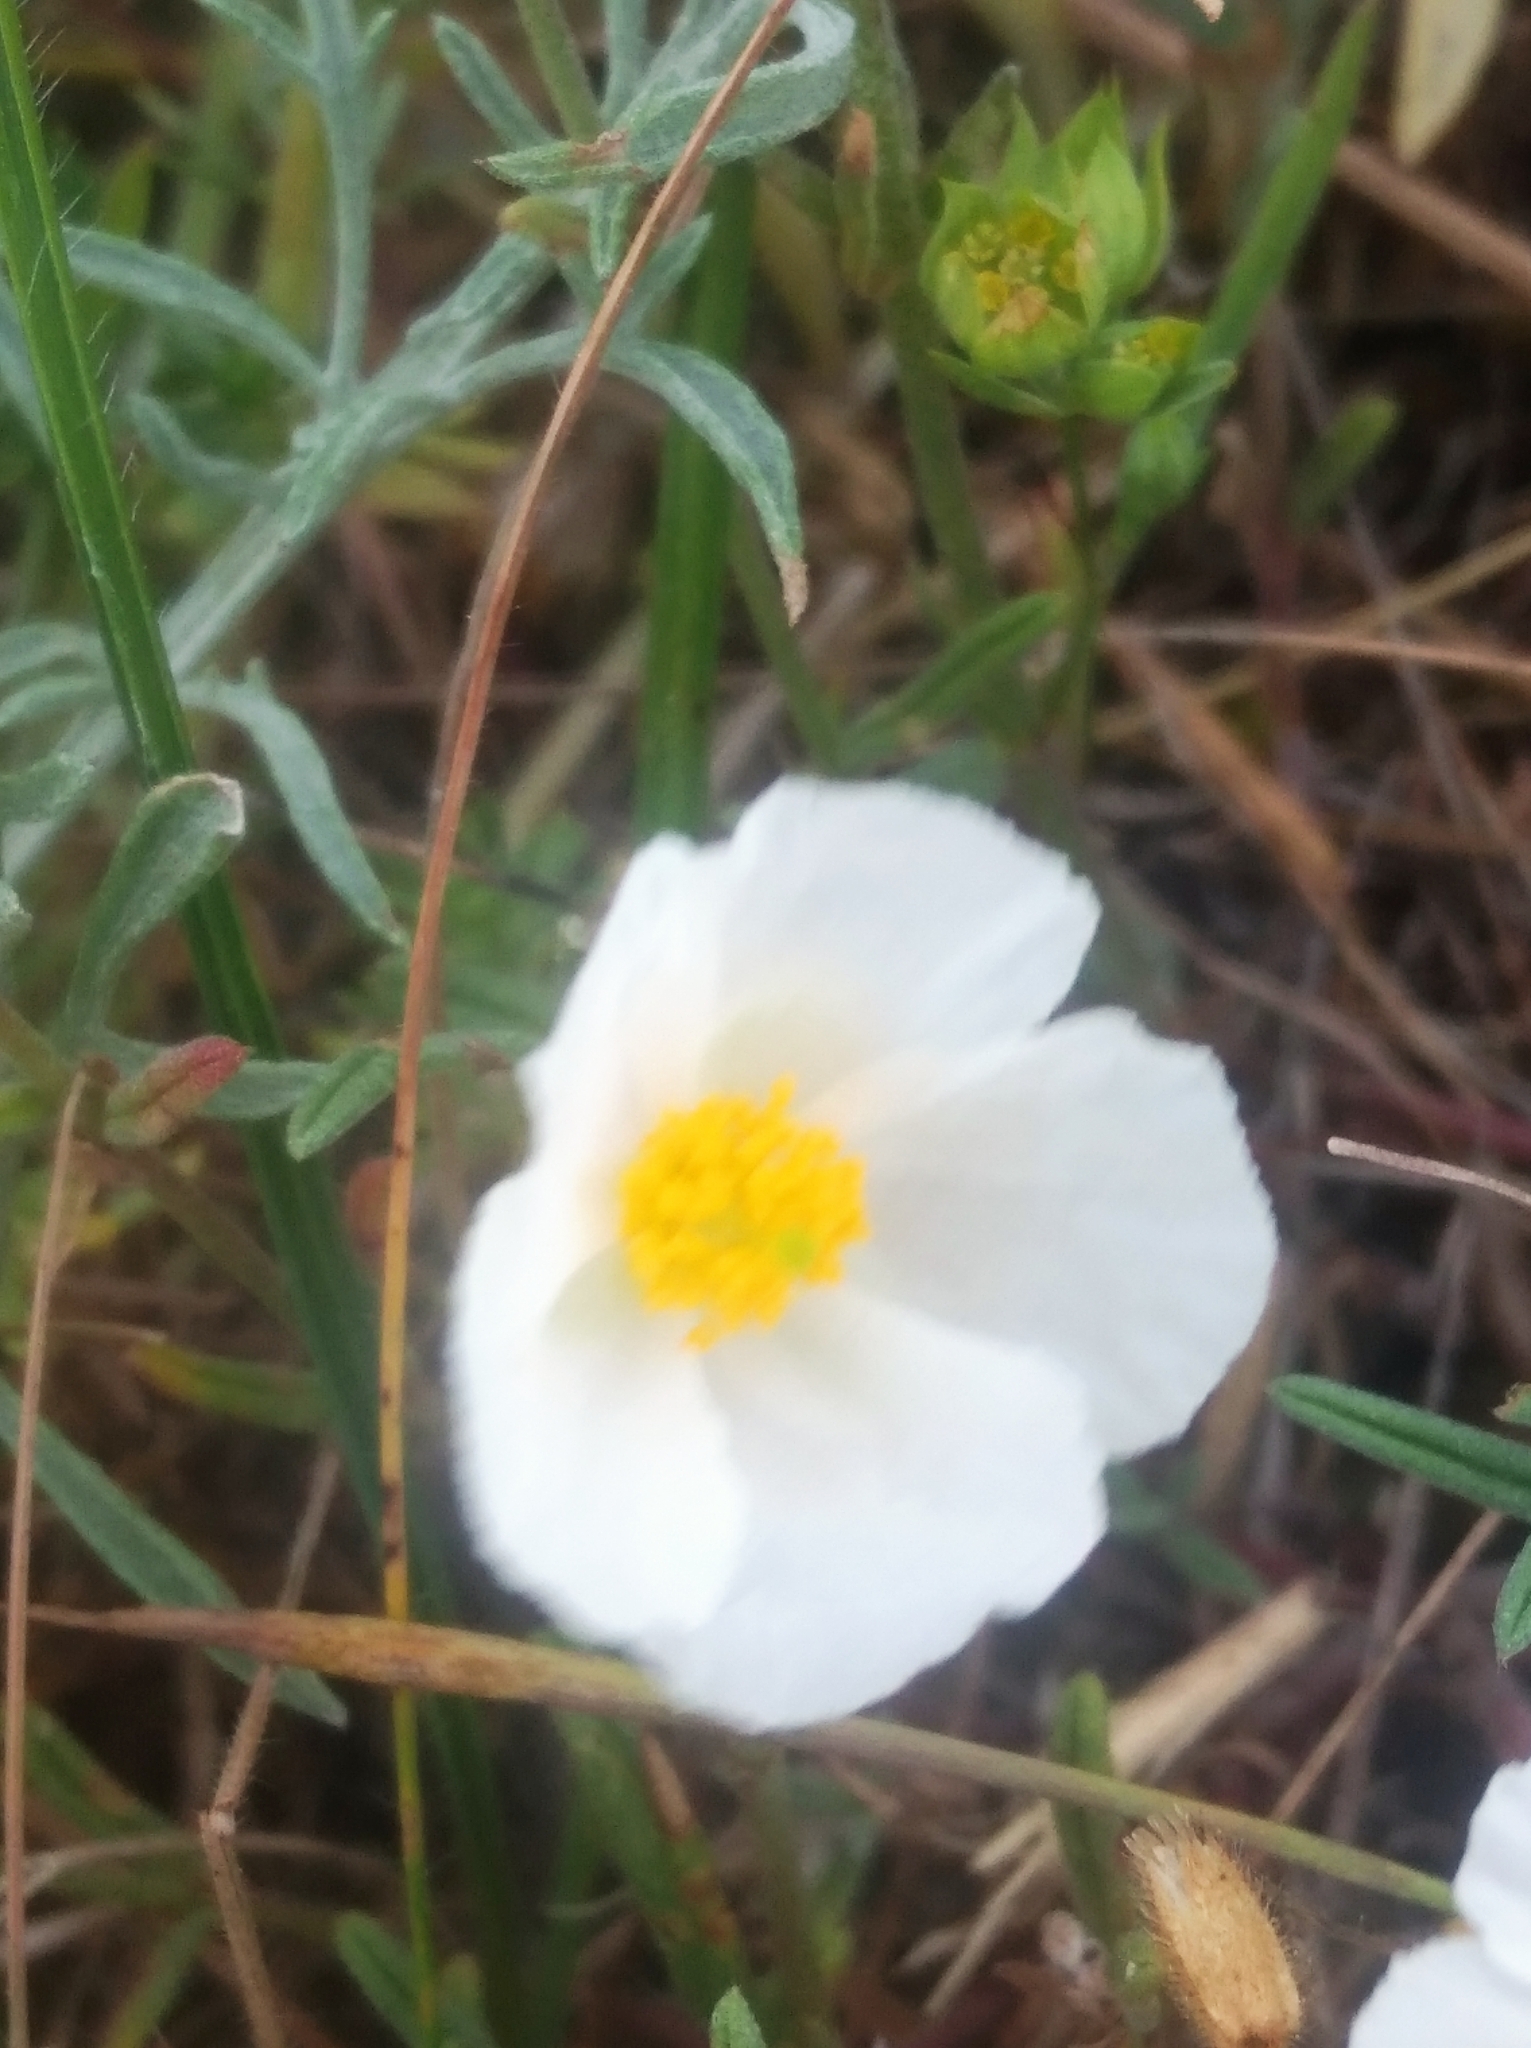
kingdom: Plantae
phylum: Tracheophyta
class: Magnoliopsida
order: Malvales
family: Cistaceae
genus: Helianthemum
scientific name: Helianthemum apenninum
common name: White rock-rose
